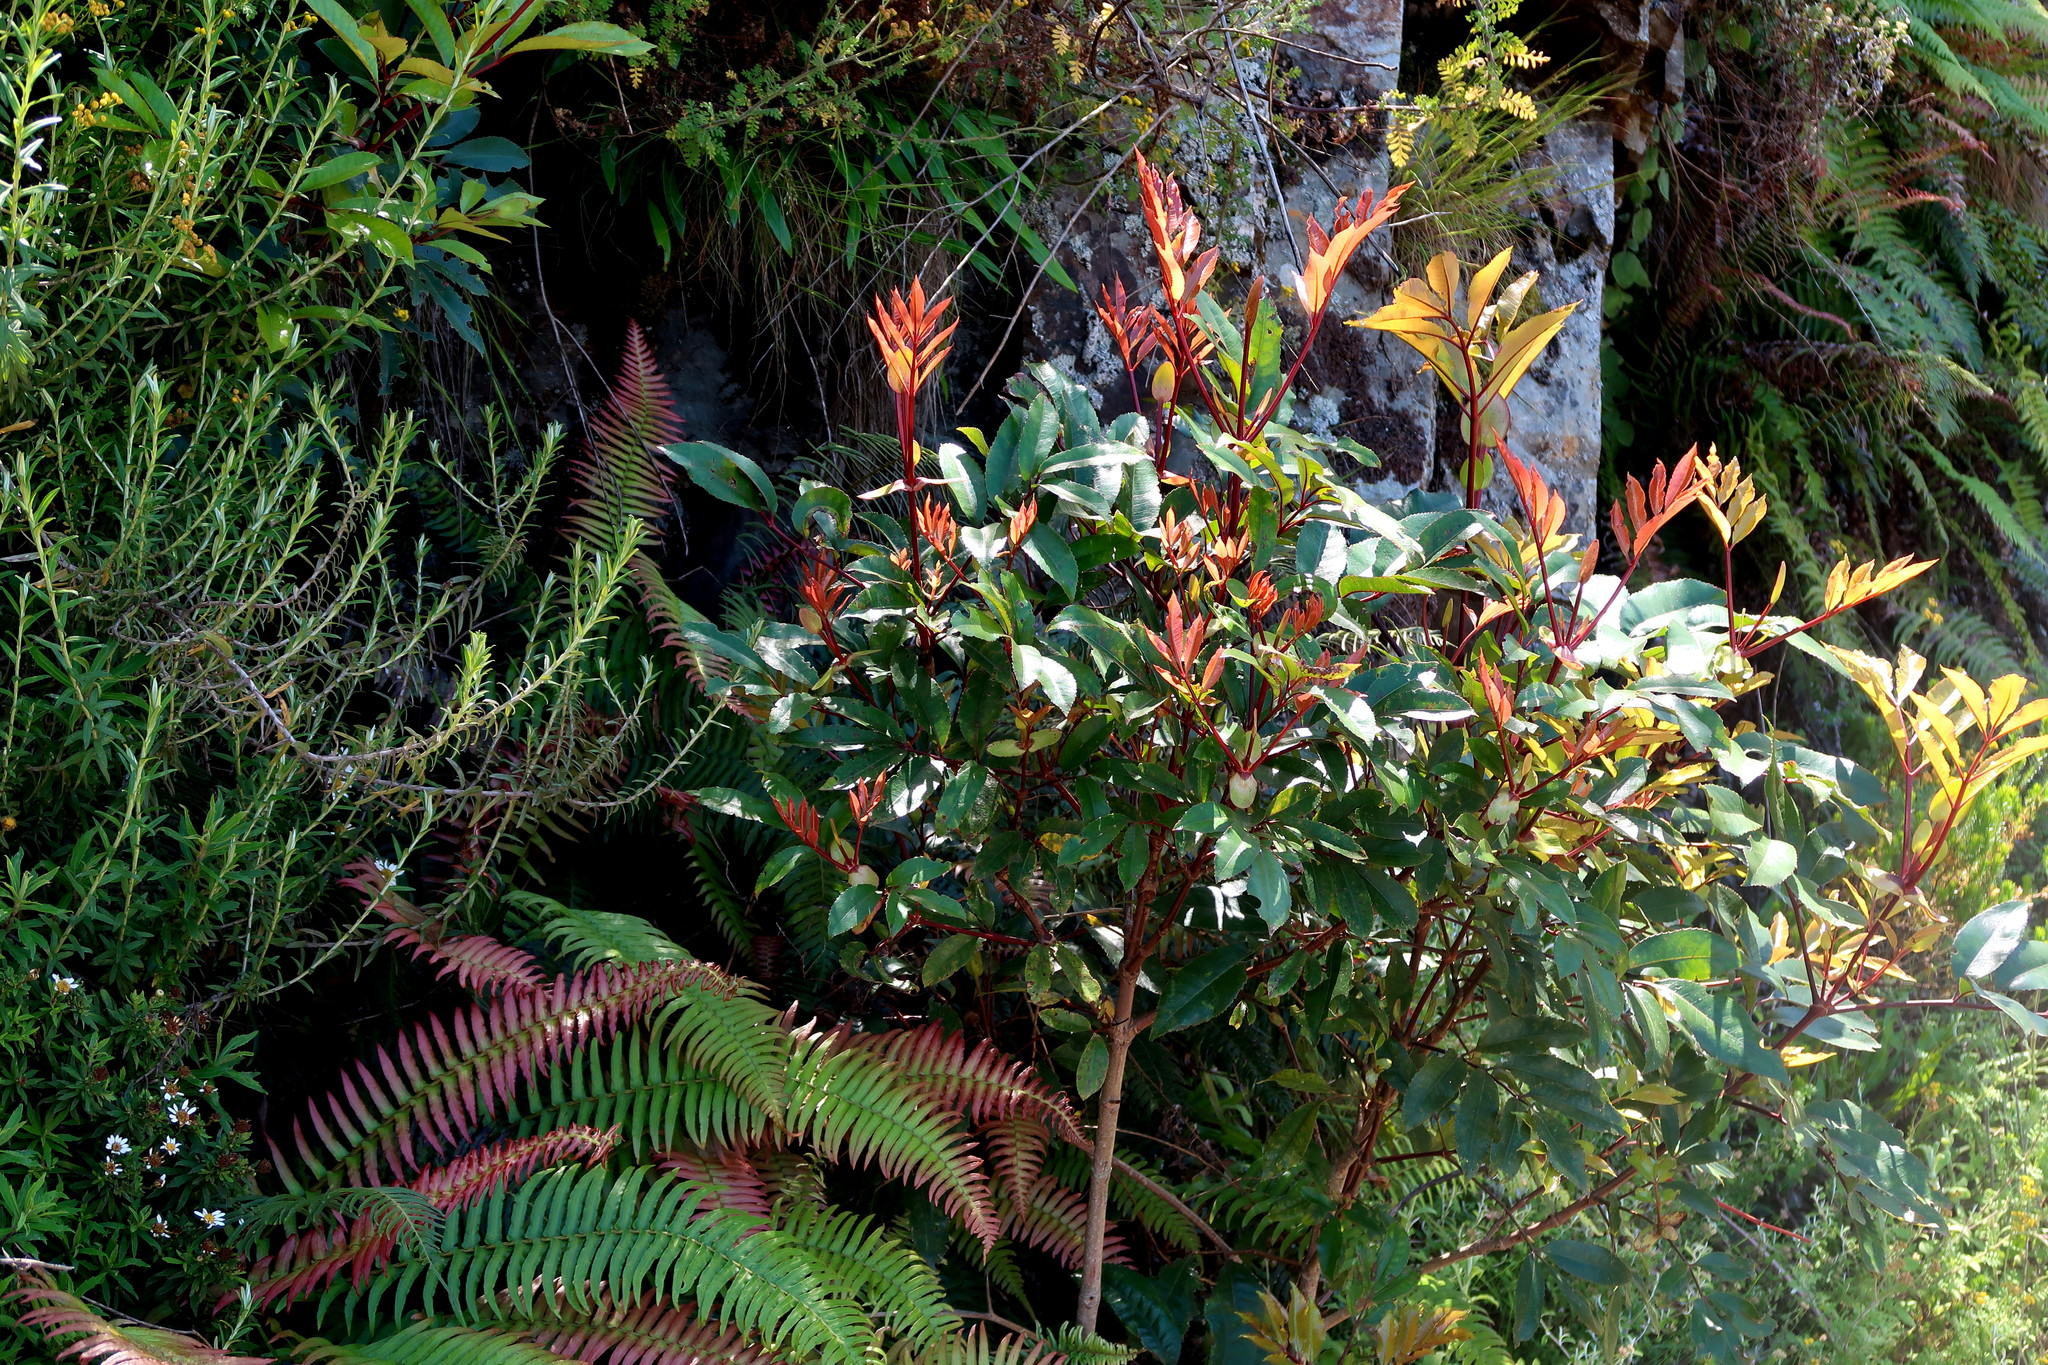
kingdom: Plantae
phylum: Tracheophyta
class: Magnoliopsida
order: Oxalidales
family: Cunoniaceae
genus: Cunonia
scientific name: Cunonia capensis
